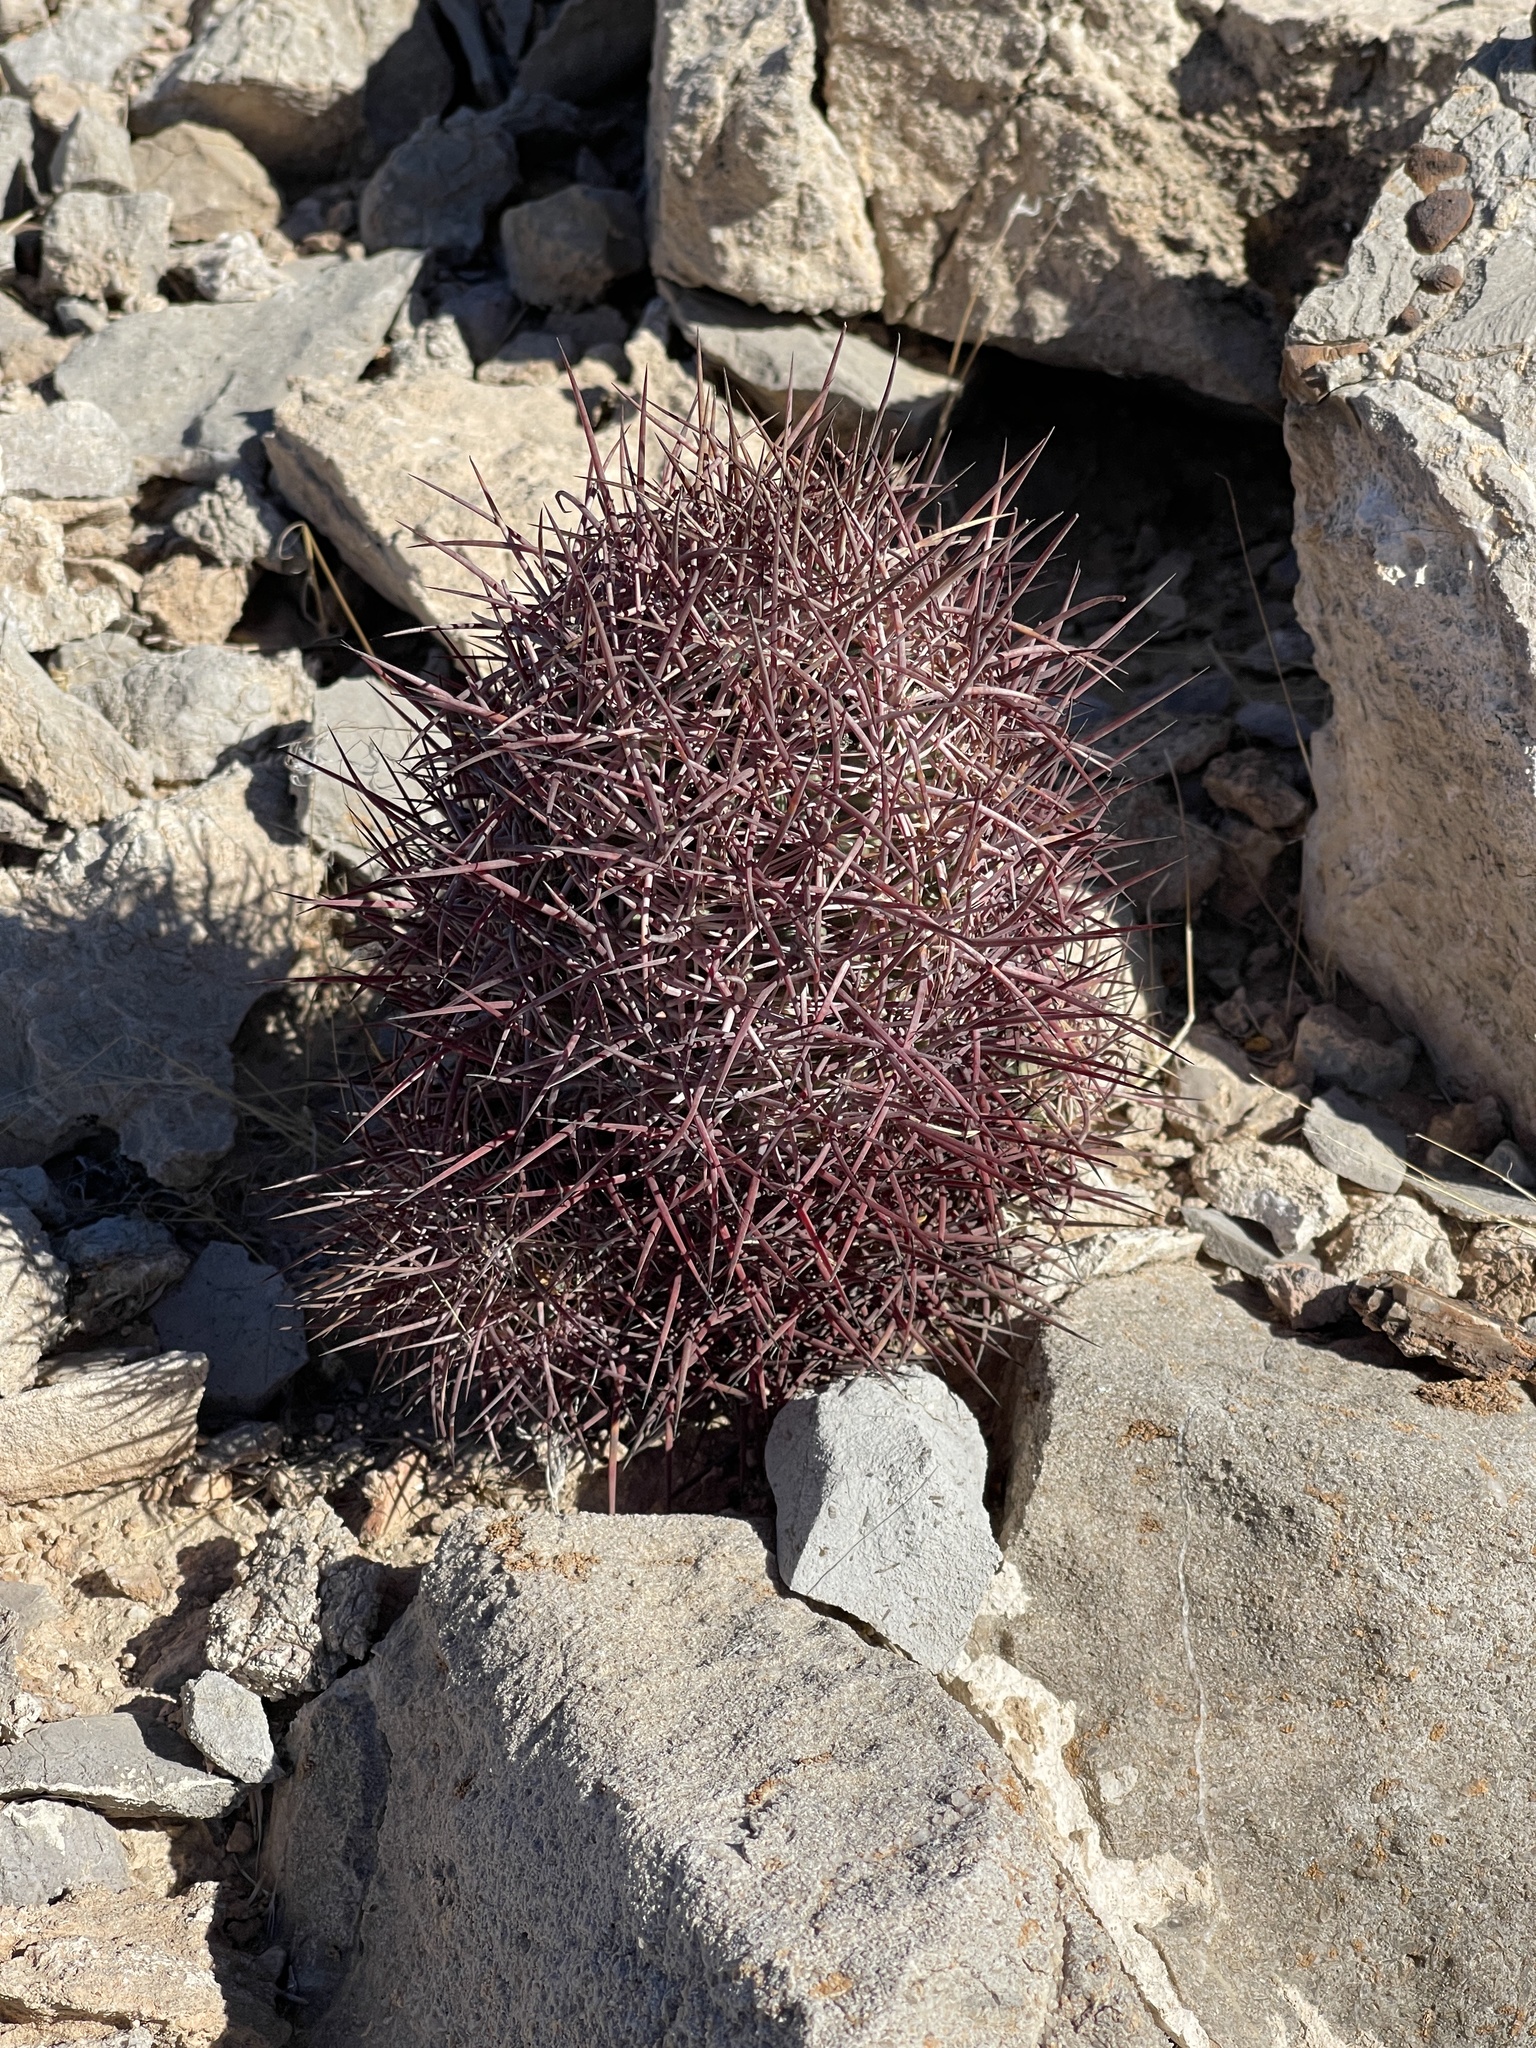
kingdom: Plantae
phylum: Tracheophyta
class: Magnoliopsida
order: Caryophyllales
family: Cactaceae
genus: Sclerocactus
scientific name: Sclerocactus johnsonii
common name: Eight-spine fishhook cactus
